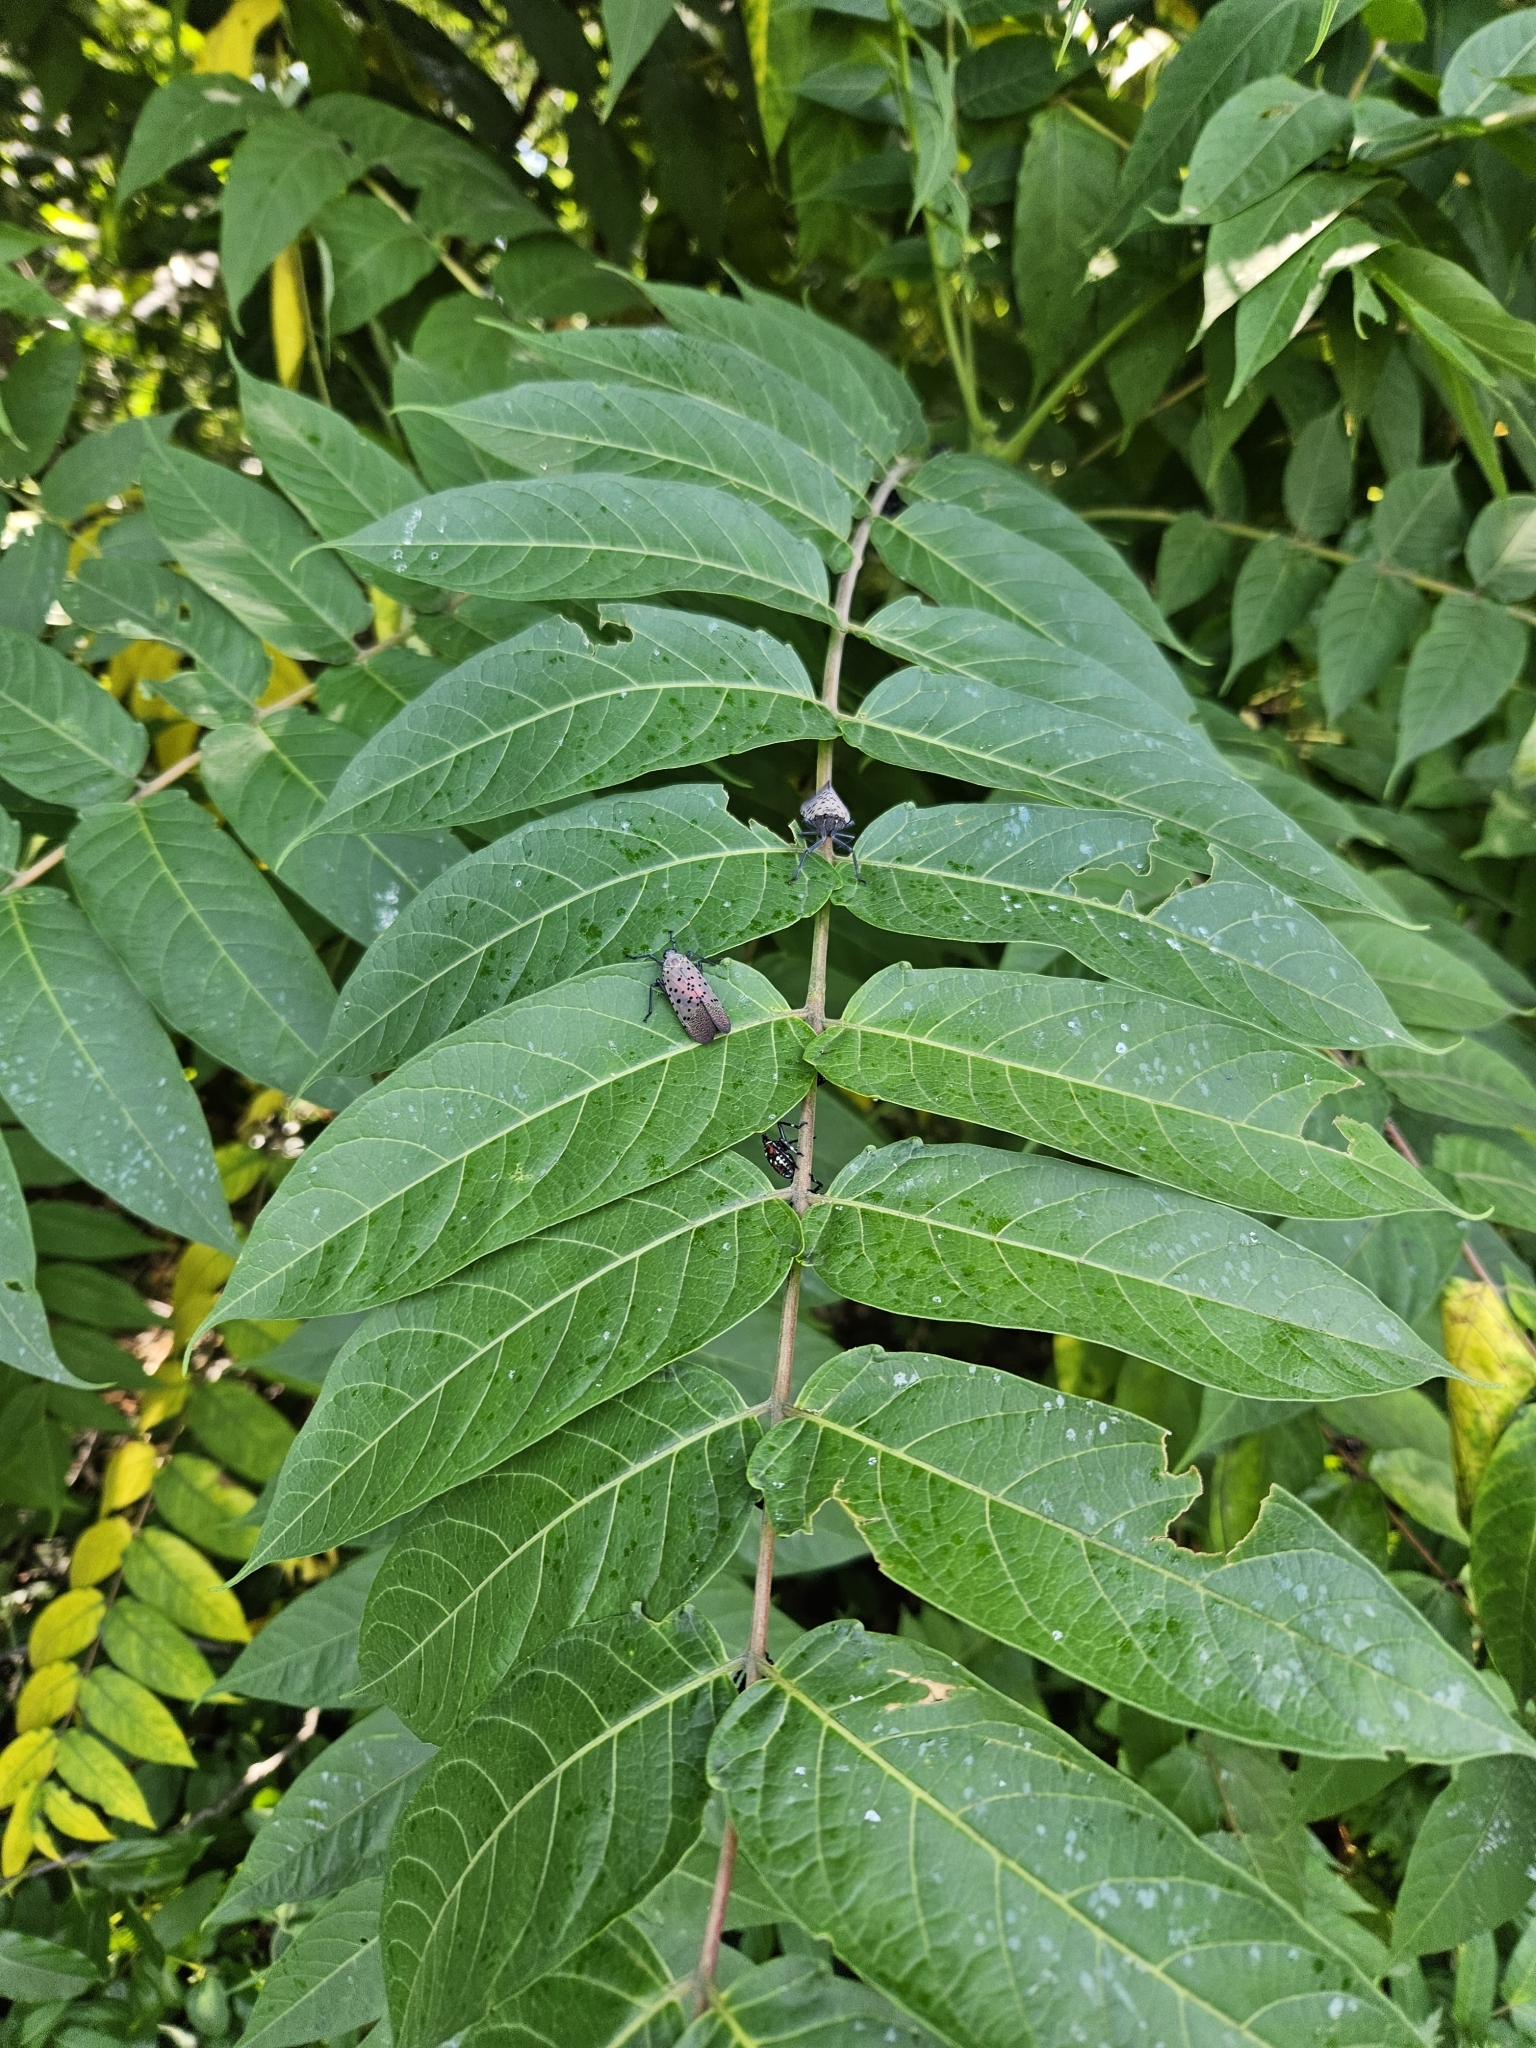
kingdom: Animalia
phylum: Arthropoda
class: Insecta
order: Hemiptera
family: Fulgoridae
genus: Lycorma
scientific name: Lycorma delicatula
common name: Spotted lanternfly
